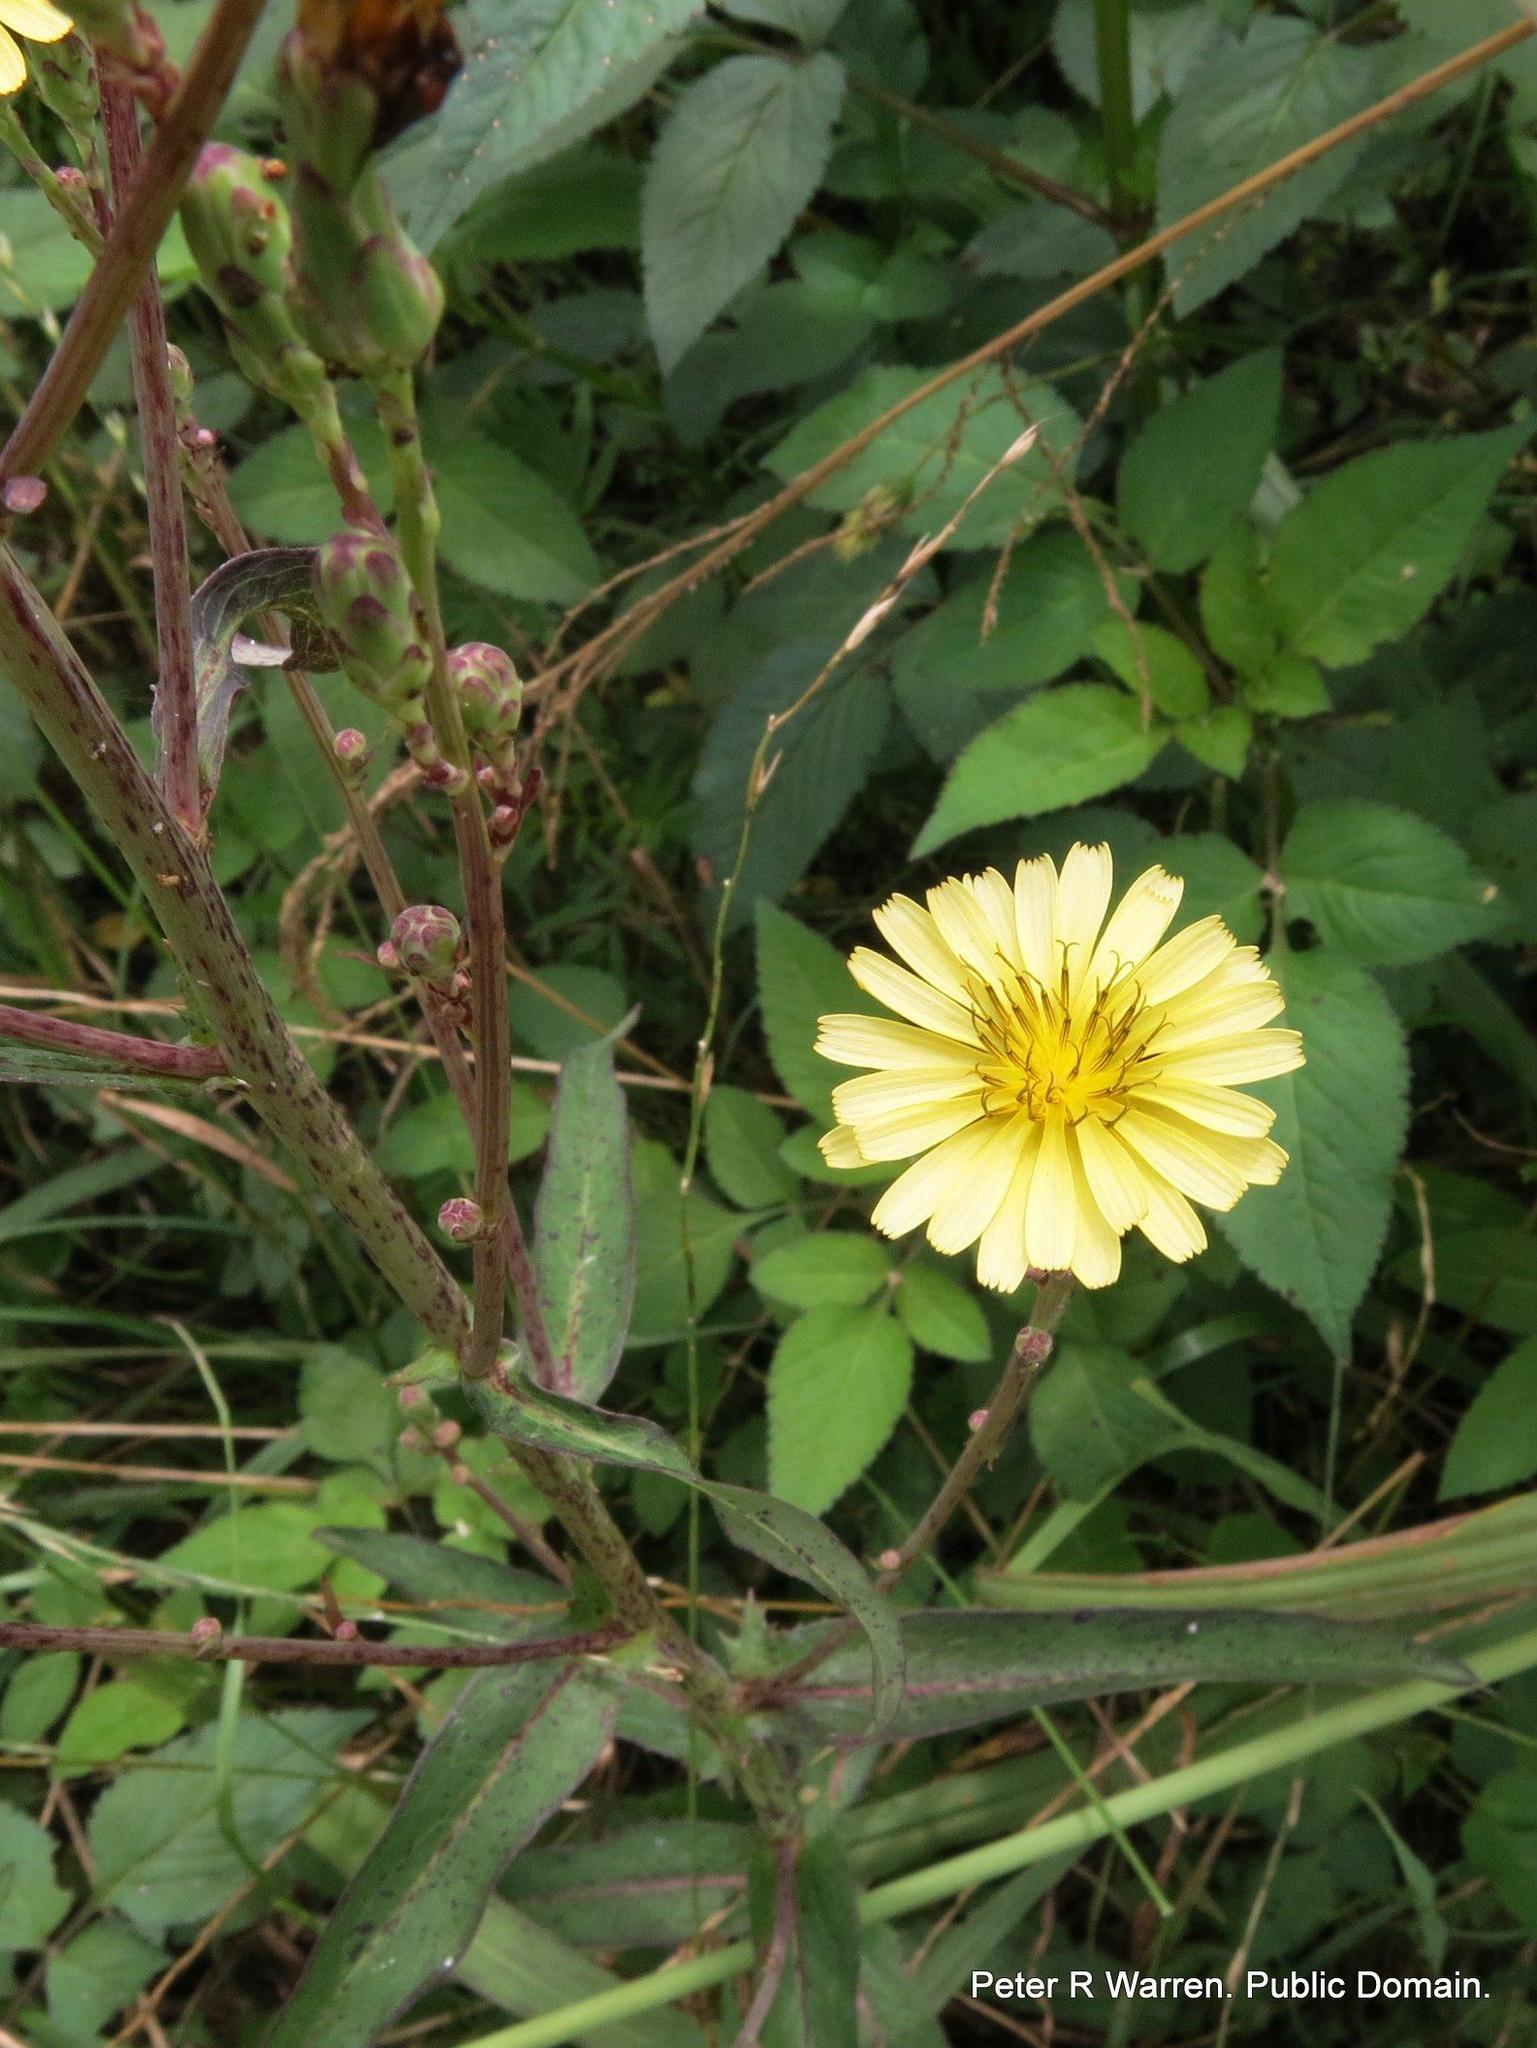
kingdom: Plantae
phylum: Tracheophyta
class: Magnoliopsida
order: Asterales
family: Asteraceae
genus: Lactuca
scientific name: Lactuca indica
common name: Wild lettuce
